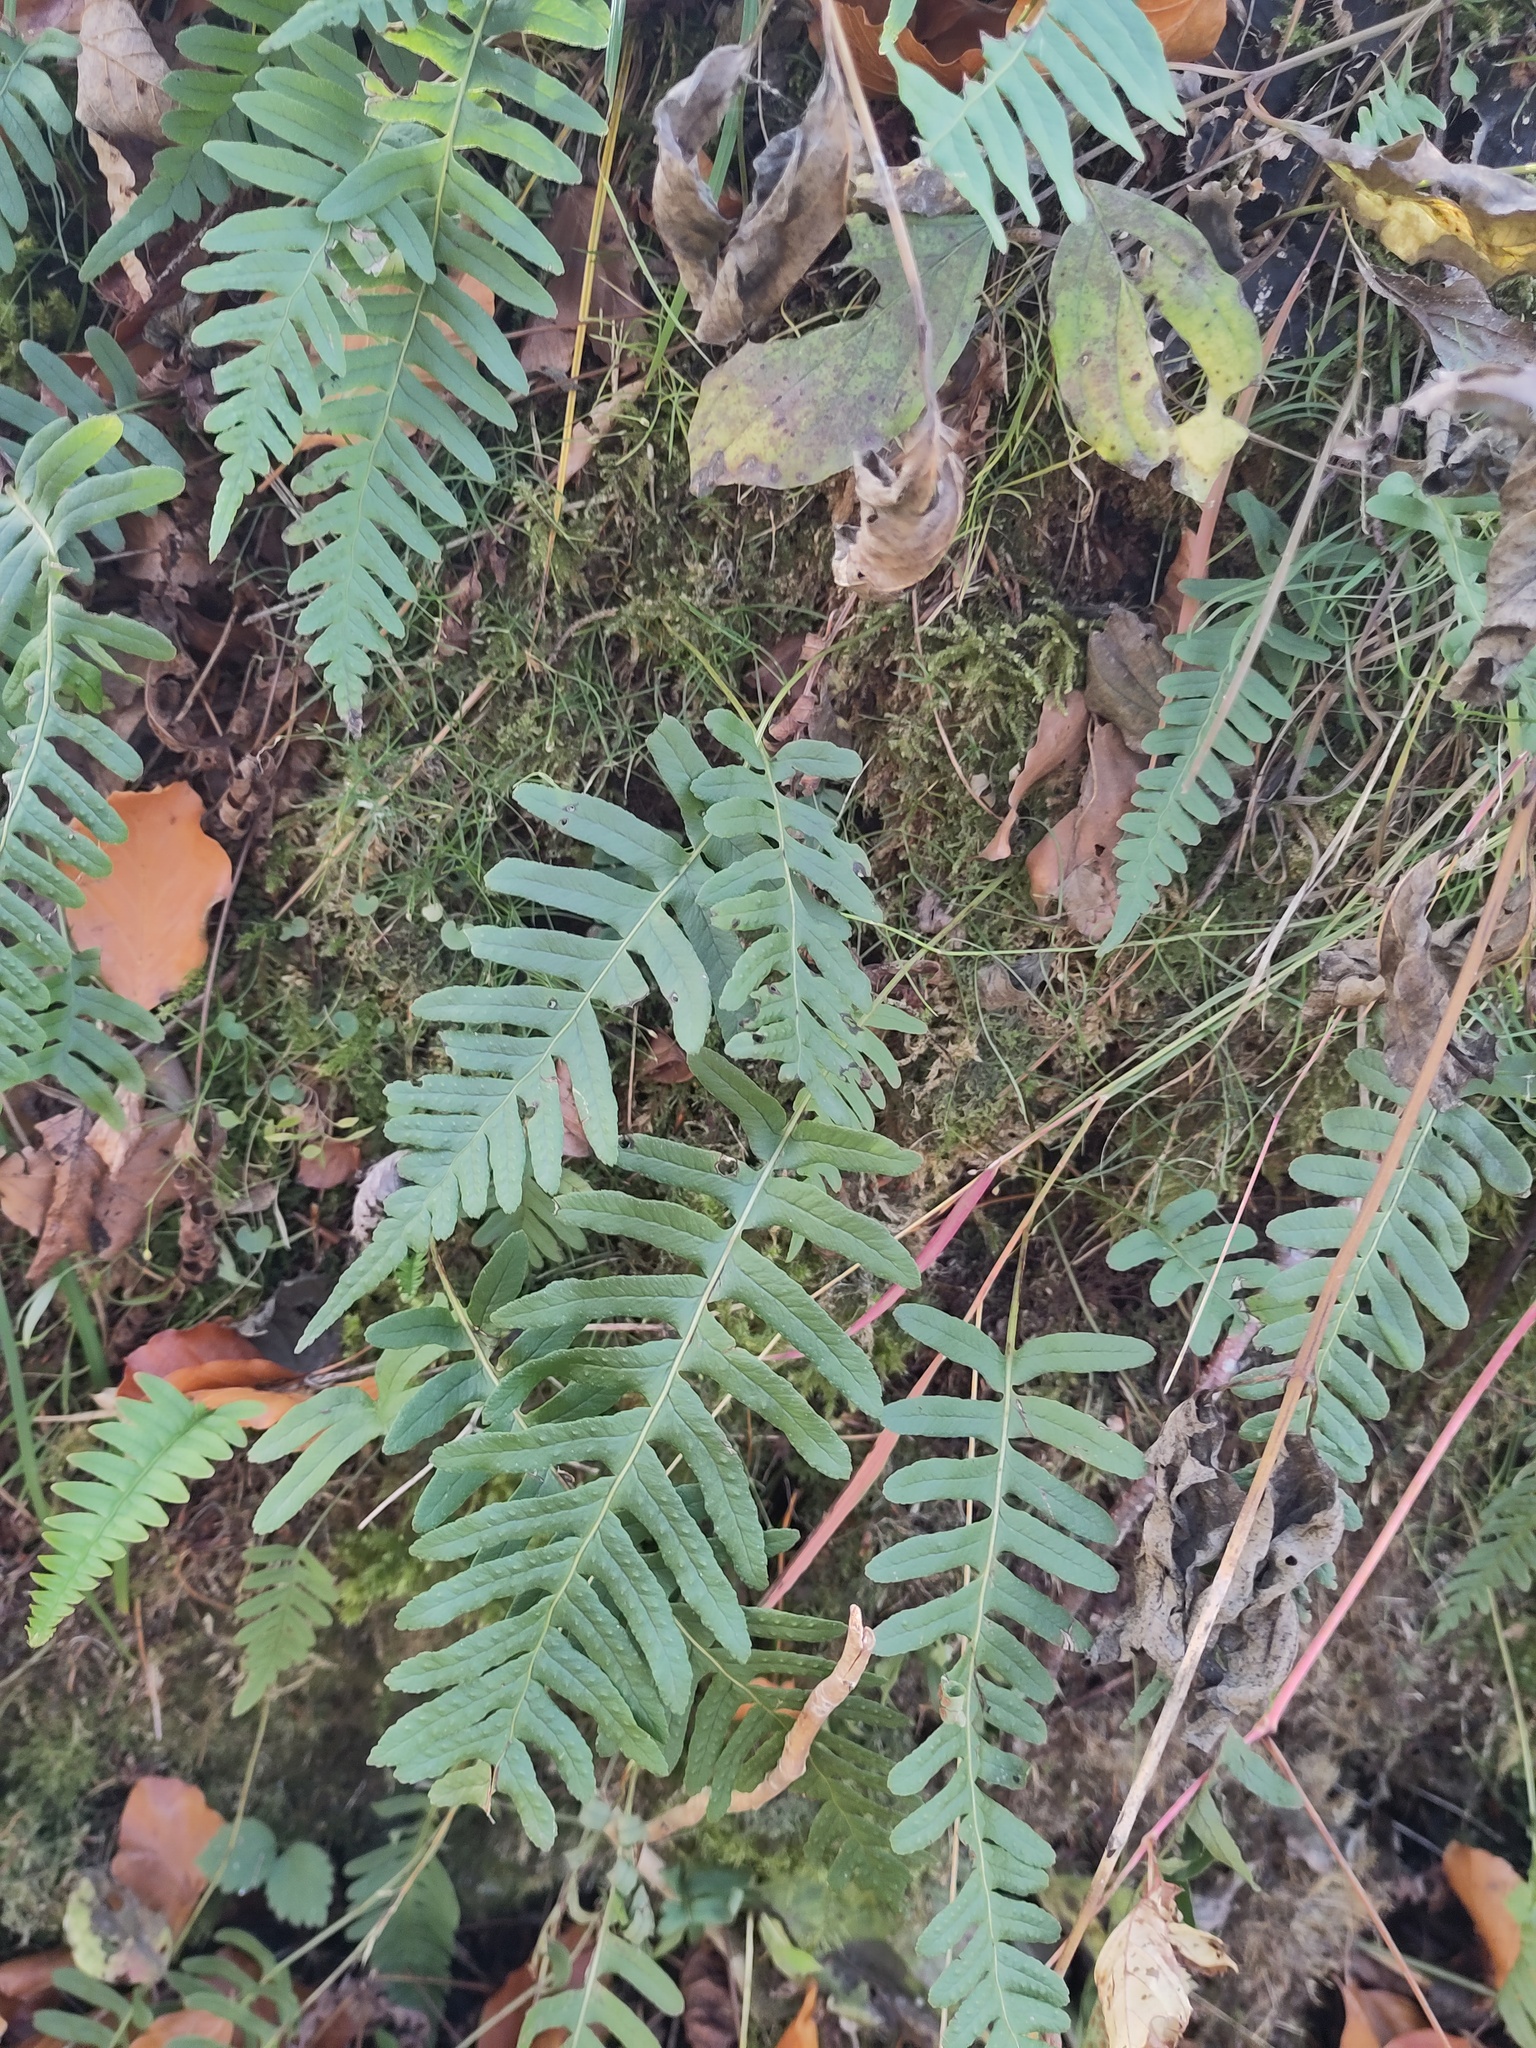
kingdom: Plantae
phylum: Tracheophyta
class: Polypodiopsida
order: Polypodiales
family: Polypodiaceae
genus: Polypodium
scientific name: Polypodium vulgare
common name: Common polypody
